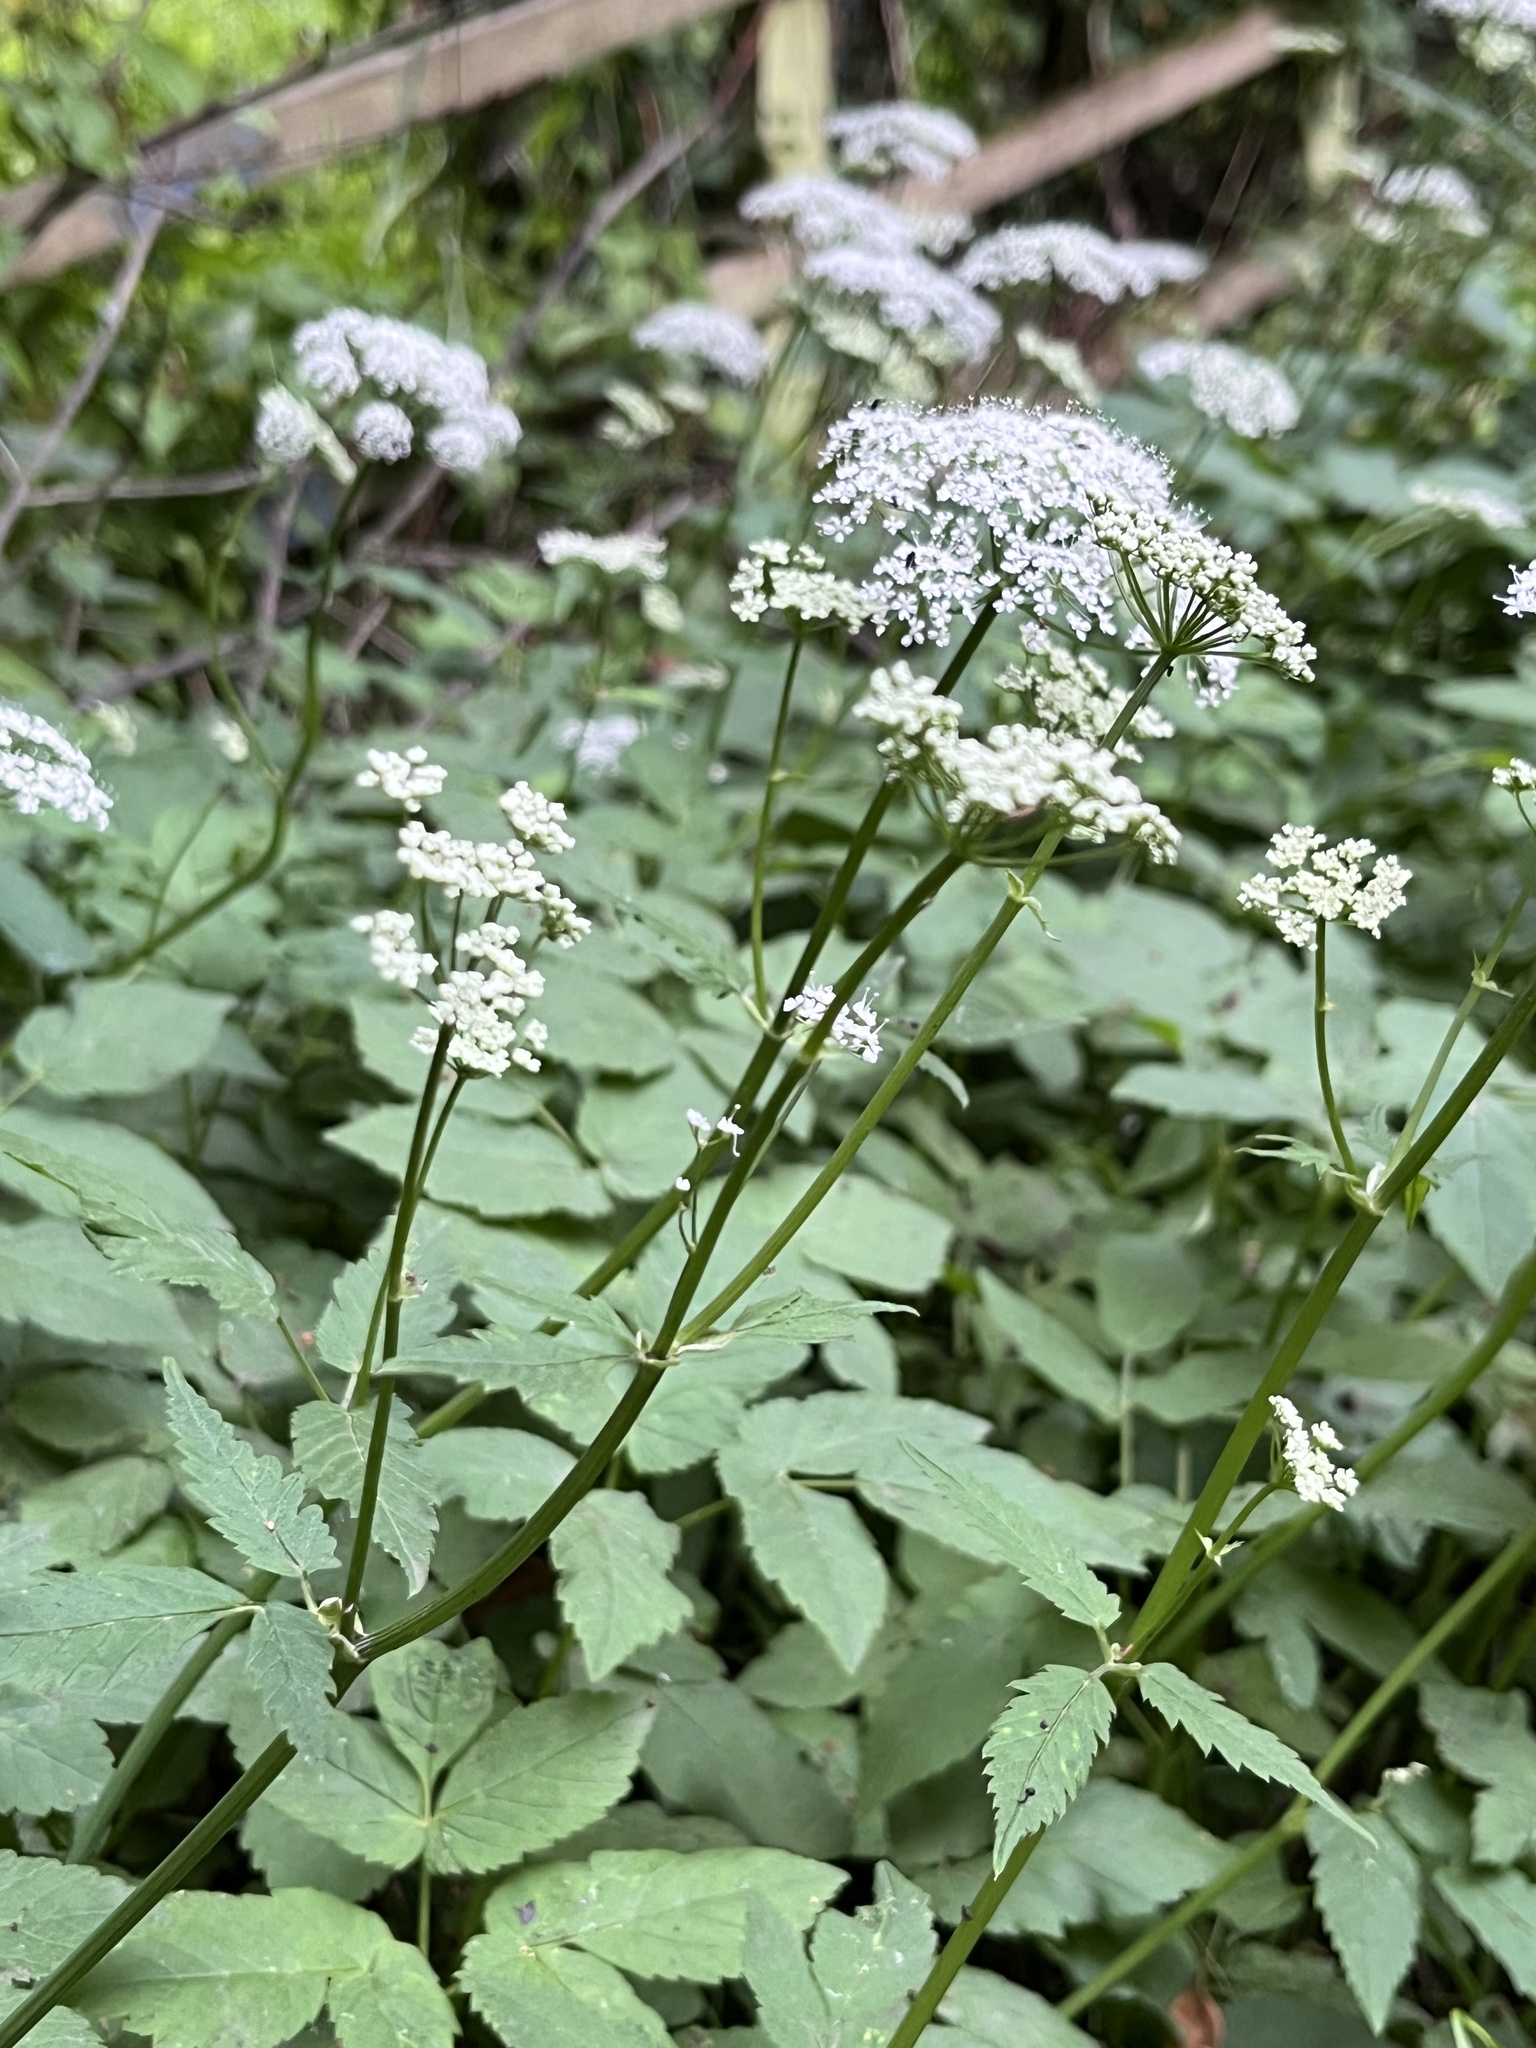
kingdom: Plantae
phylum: Tracheophyta
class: Magnoliopsida
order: Apiales
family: Apiaceae
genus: Aegopodium
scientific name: Aegopodium podagraria
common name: Ground-elder
